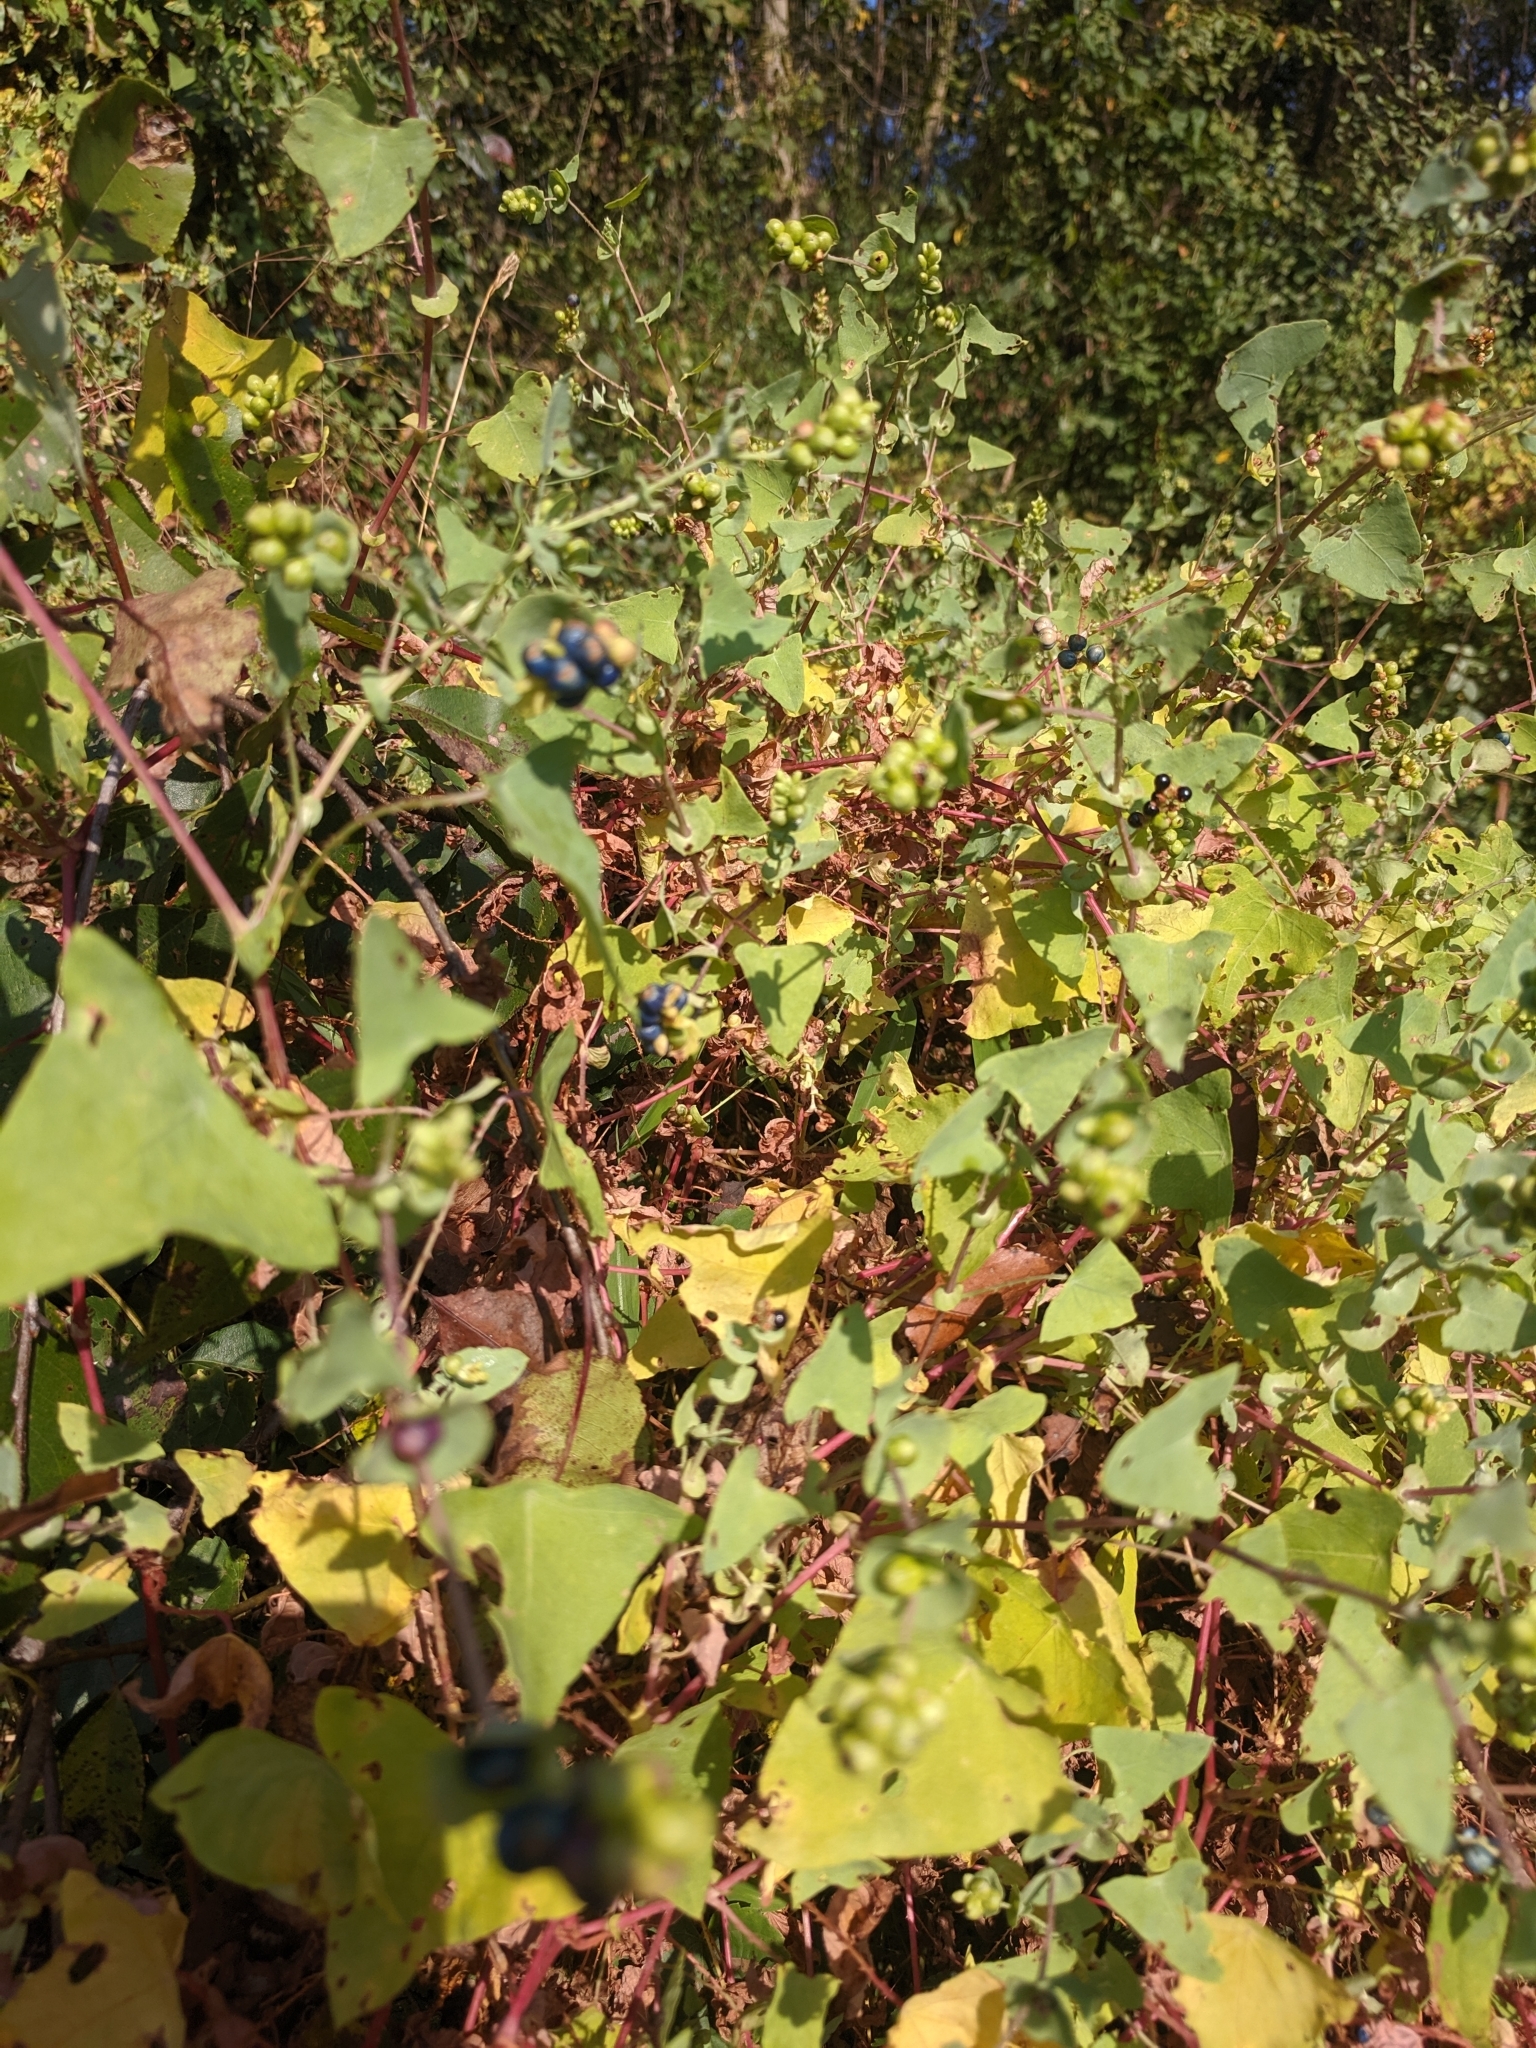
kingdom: Plantae
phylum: Tracheophyta
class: Magnoliopsida
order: Caryophyllales
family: Polygonaceae
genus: Persicaria
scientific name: Persicaria perfoliata
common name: Asiatic tearthumb
